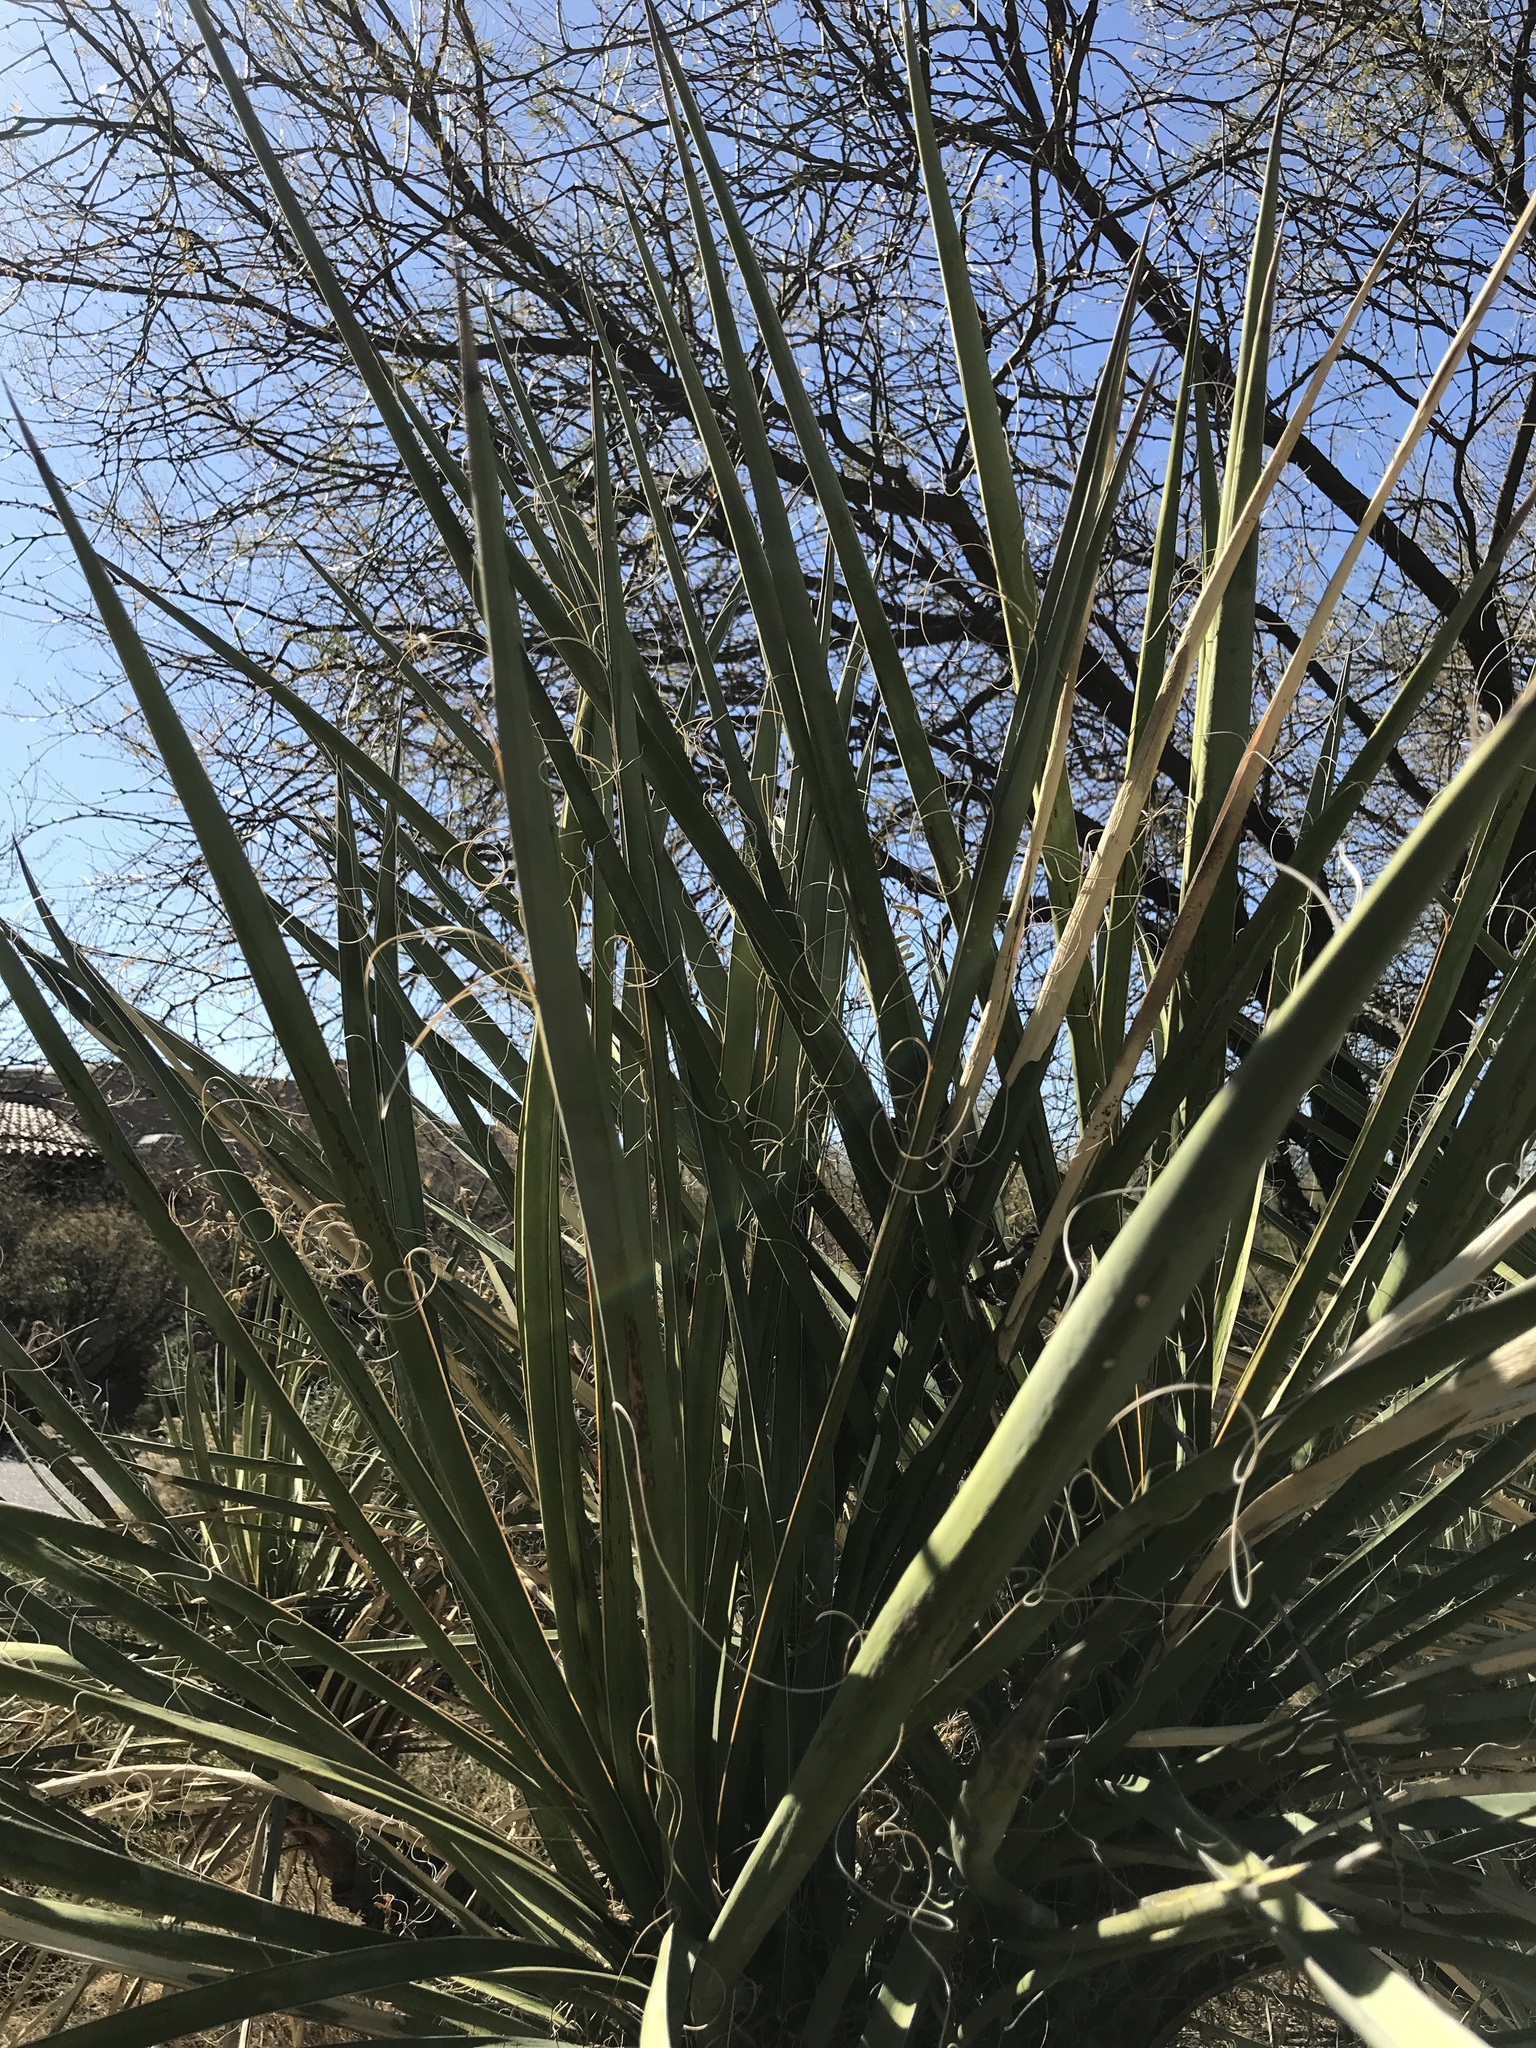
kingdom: Plantae
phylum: Tracheophyta
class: Liliopsida
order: Asparagales
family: Asparagaceae
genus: Yucca
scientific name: Yucca baccata
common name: Banana yucca
